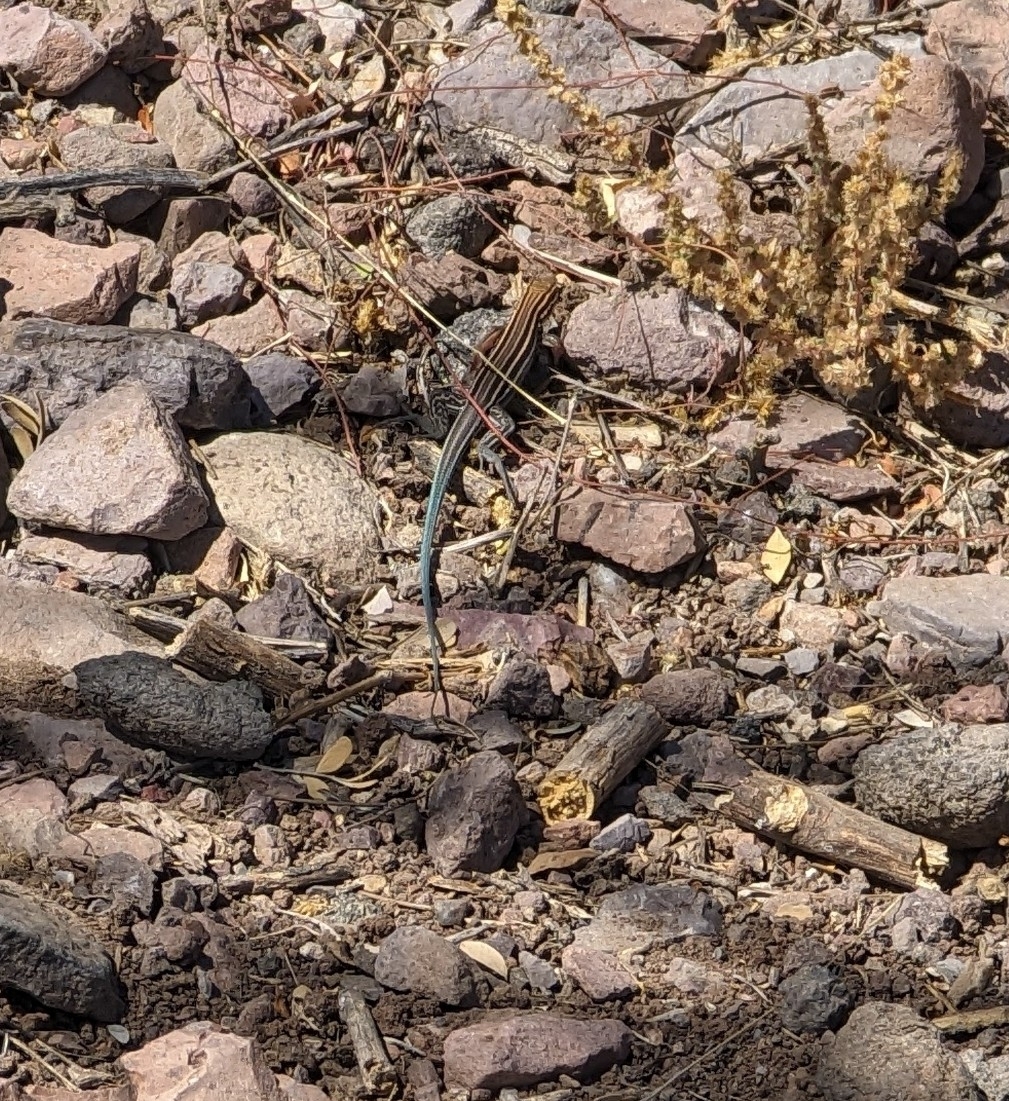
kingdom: Animalia
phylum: Chordata
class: Squamata
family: Teiidae
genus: Aspidoscelis
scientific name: Aspidoscelis hyperythrus
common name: Orange-throated race-runner
